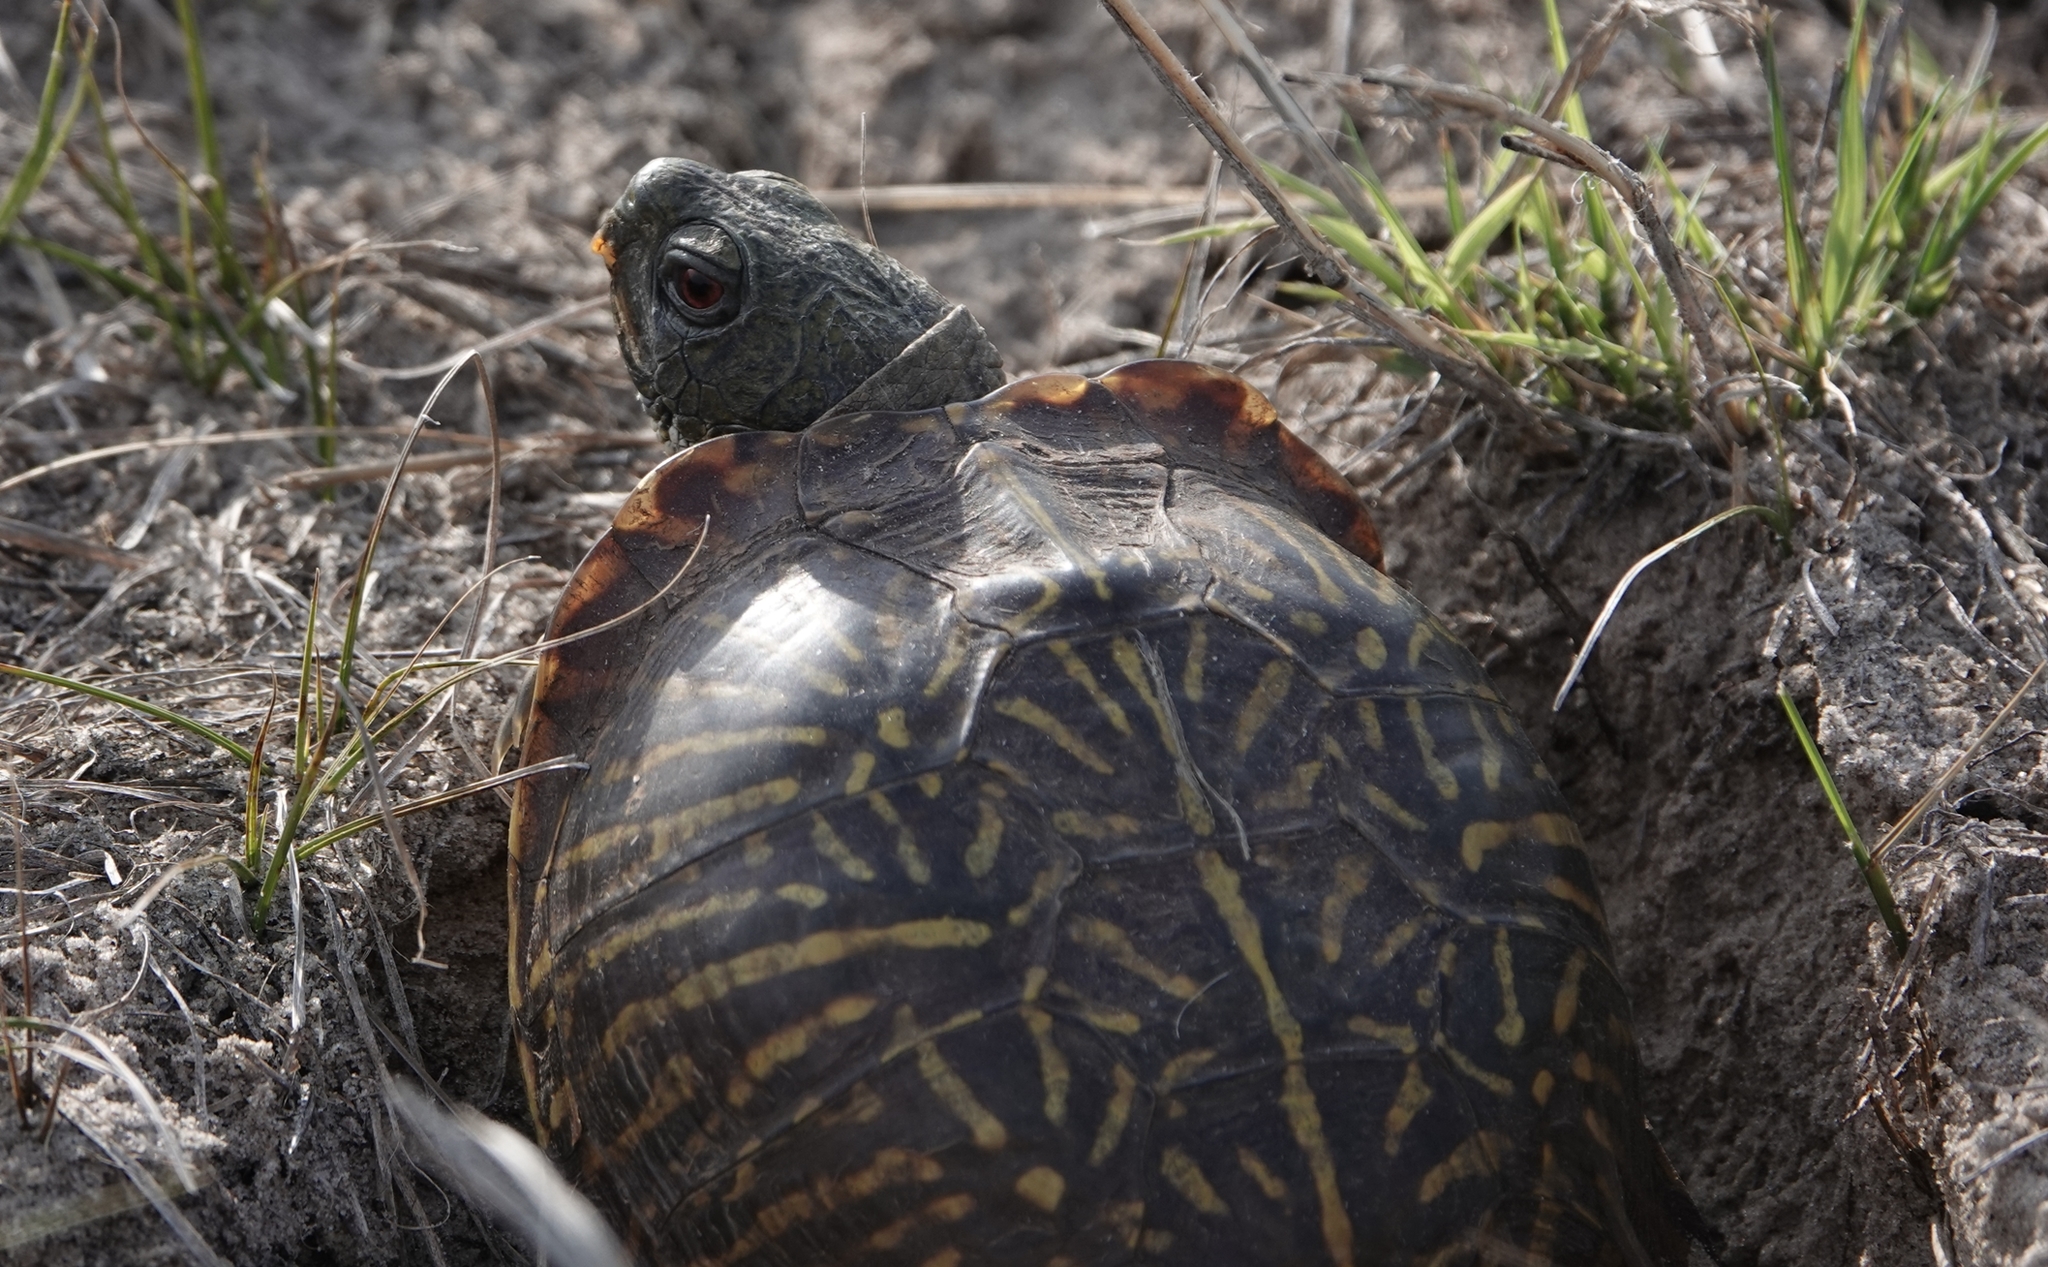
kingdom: Animalia
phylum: Chordata
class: Testudines
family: Emydidae
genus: Terrapene
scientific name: Terrapene ornata
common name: Western box turtle
